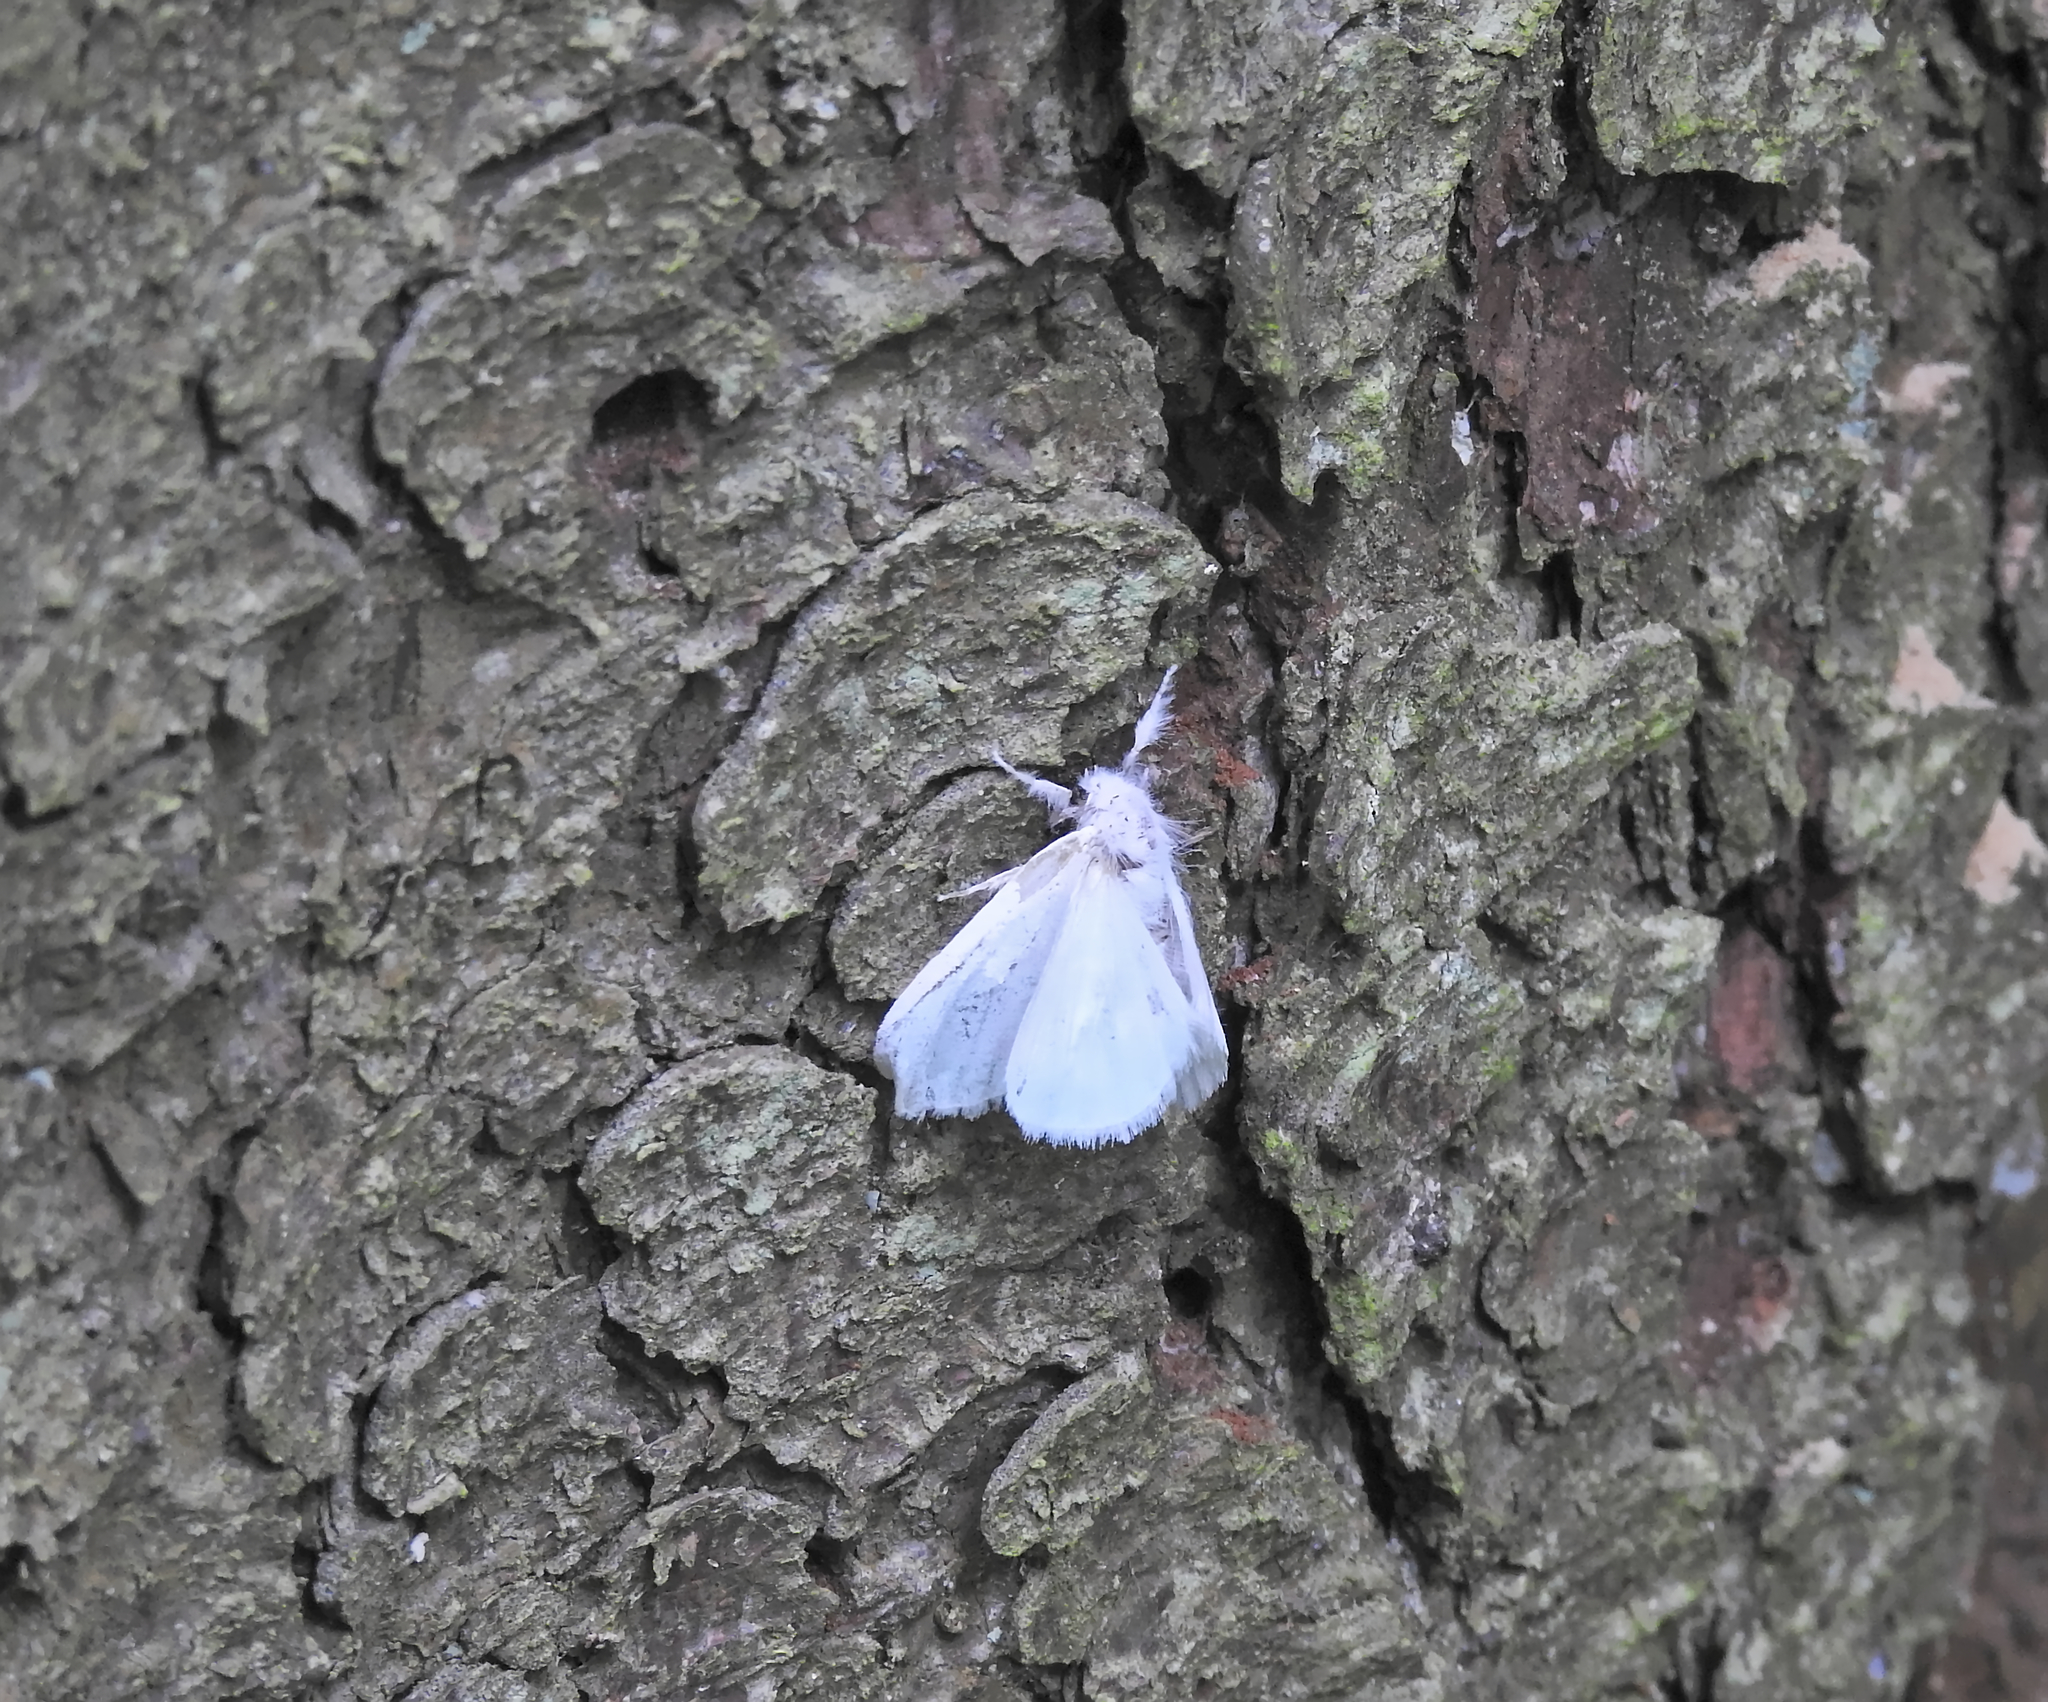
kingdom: Animalia
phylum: Arthropoda
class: Insecta
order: Lepidoptera
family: Erebidae
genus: Sphrageidus
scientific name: Sphrageidus similis
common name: Yellow-tail
